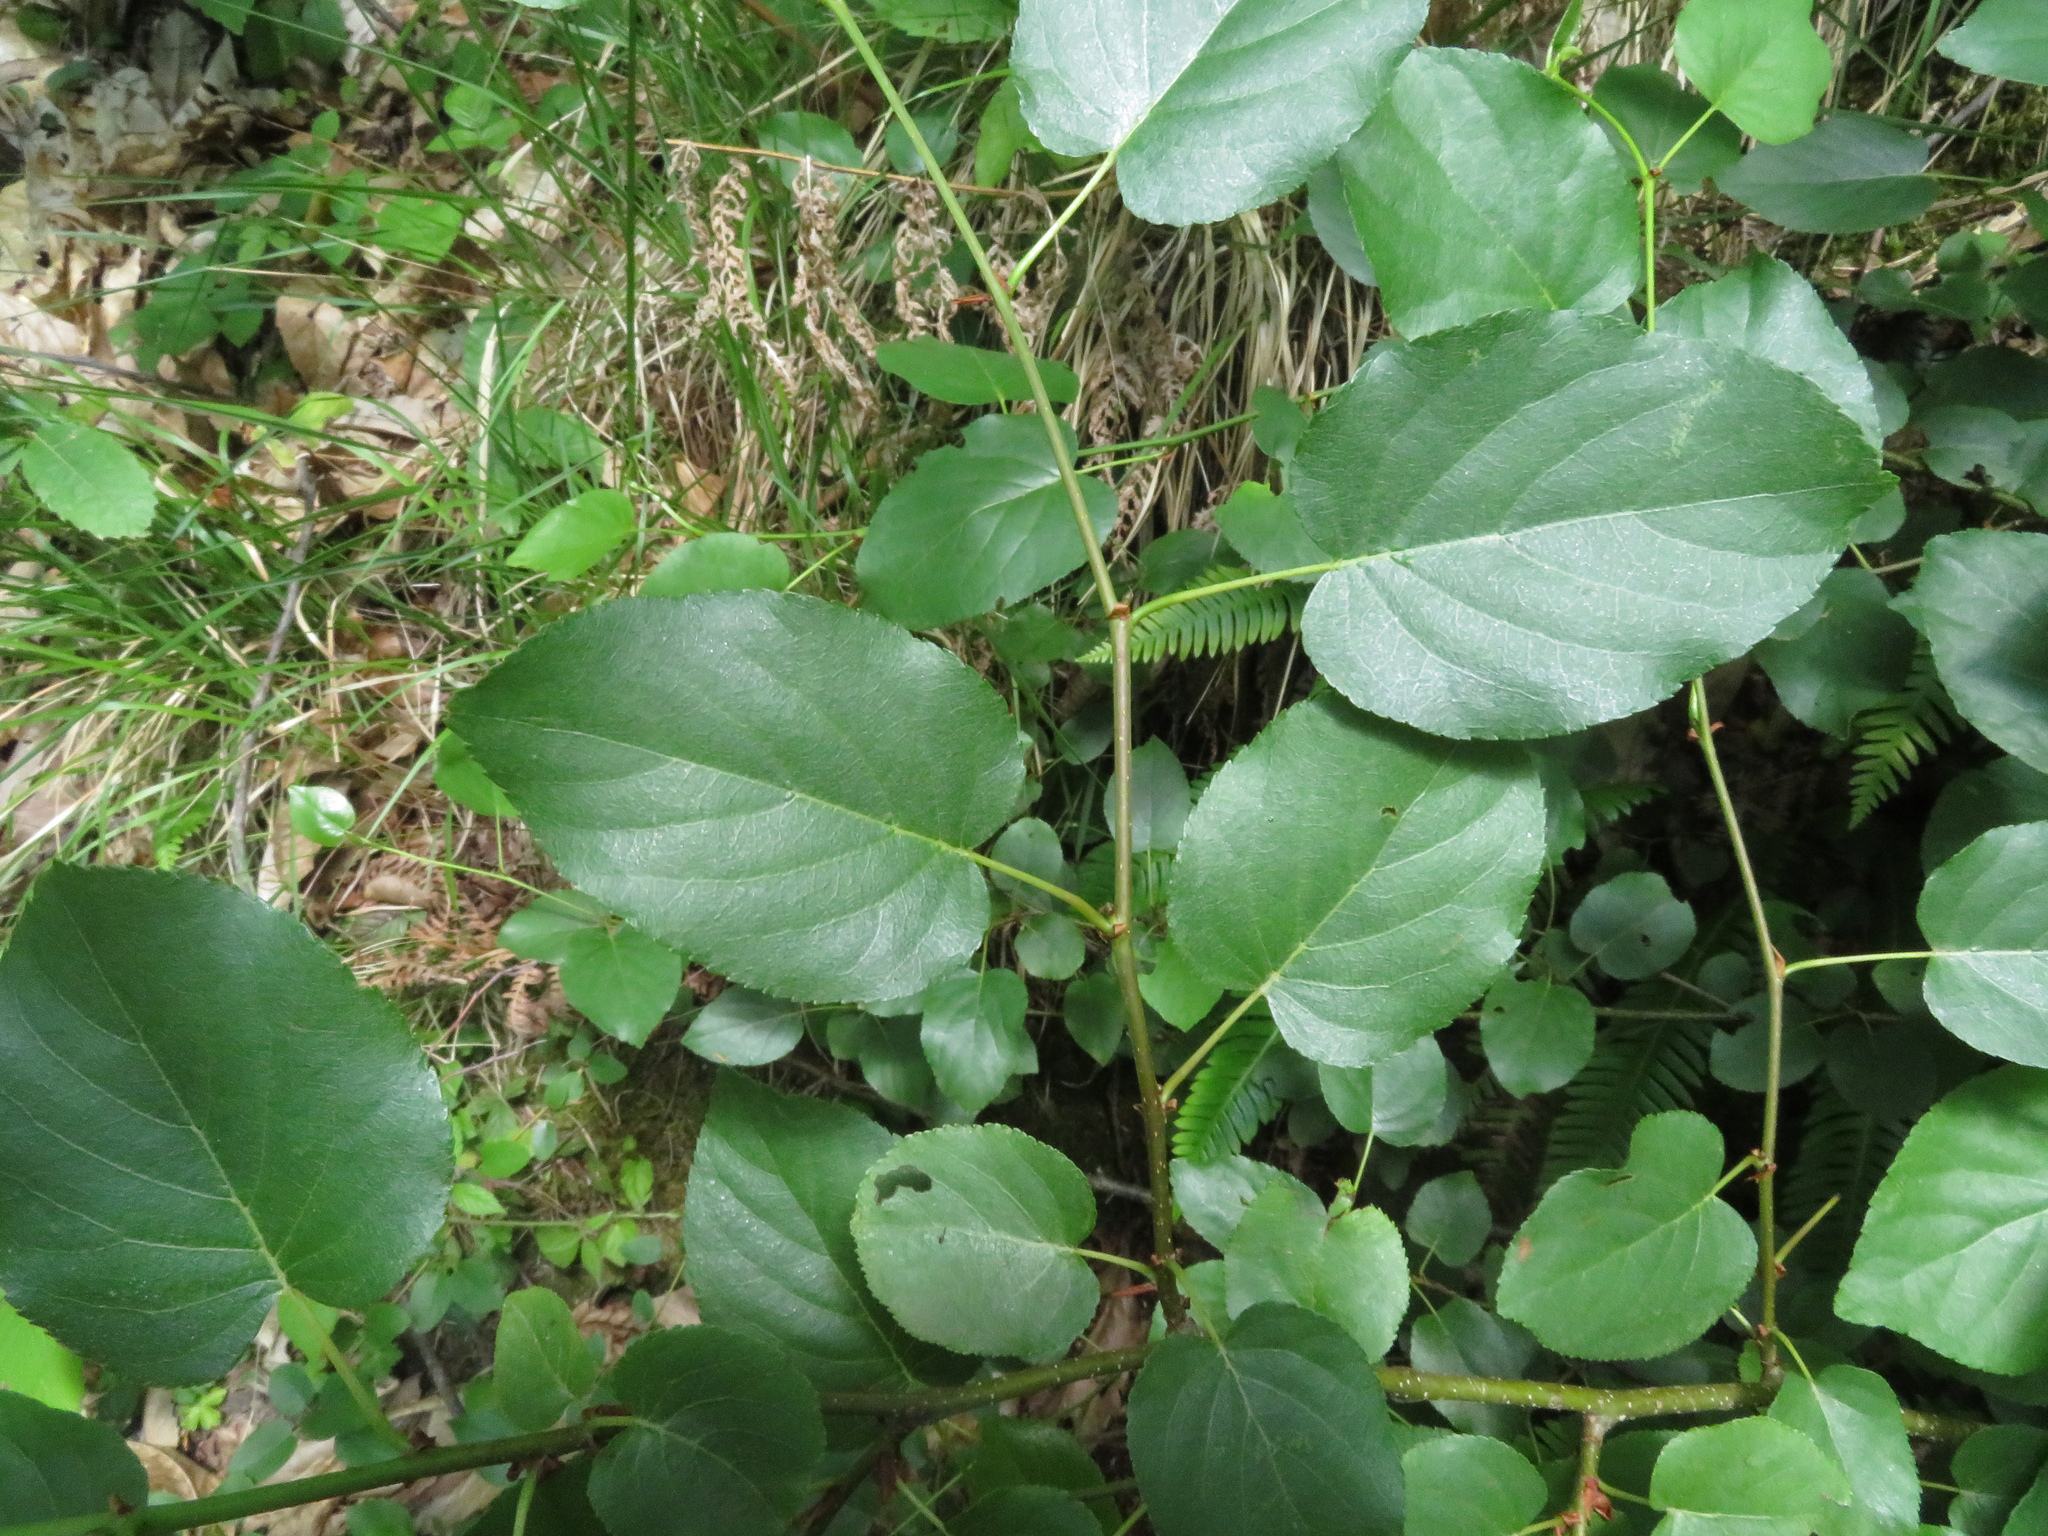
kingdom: Plantae
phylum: Tracheophyta
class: Magnoliopsida
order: Fagales
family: Betulaceae
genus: Alnus
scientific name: Alnus cordata
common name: Italian alder
